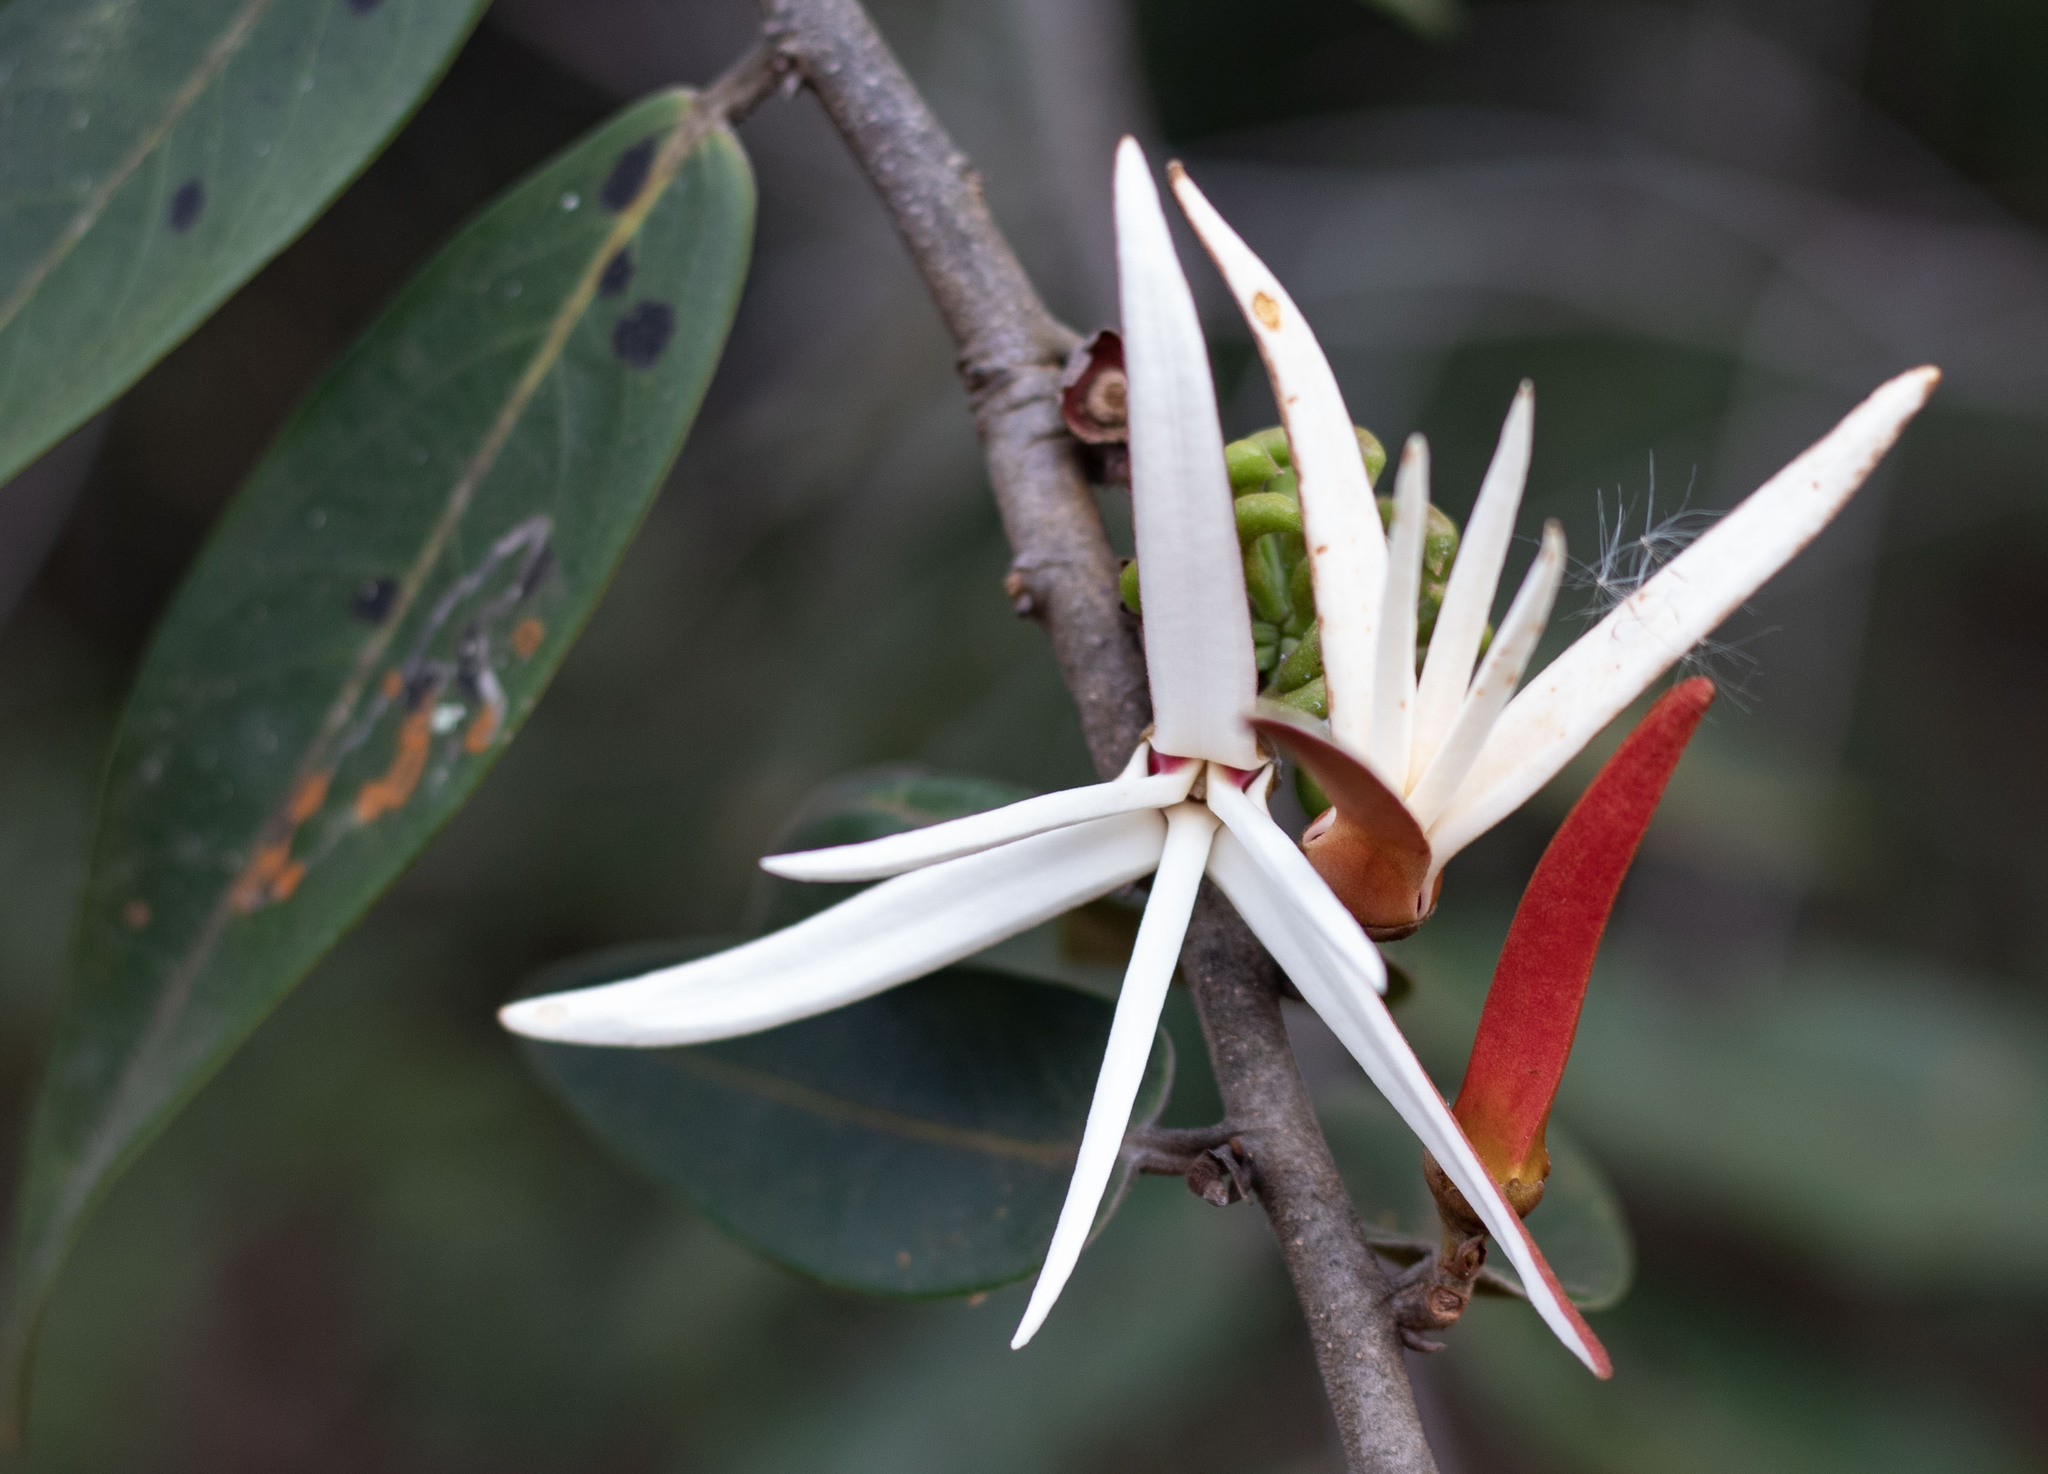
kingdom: Plantae
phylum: Tracheophyta
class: Magnoliopsida
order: Magnoliales
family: Annonaceae
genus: Xylopia
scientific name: Xylopia aromatica
